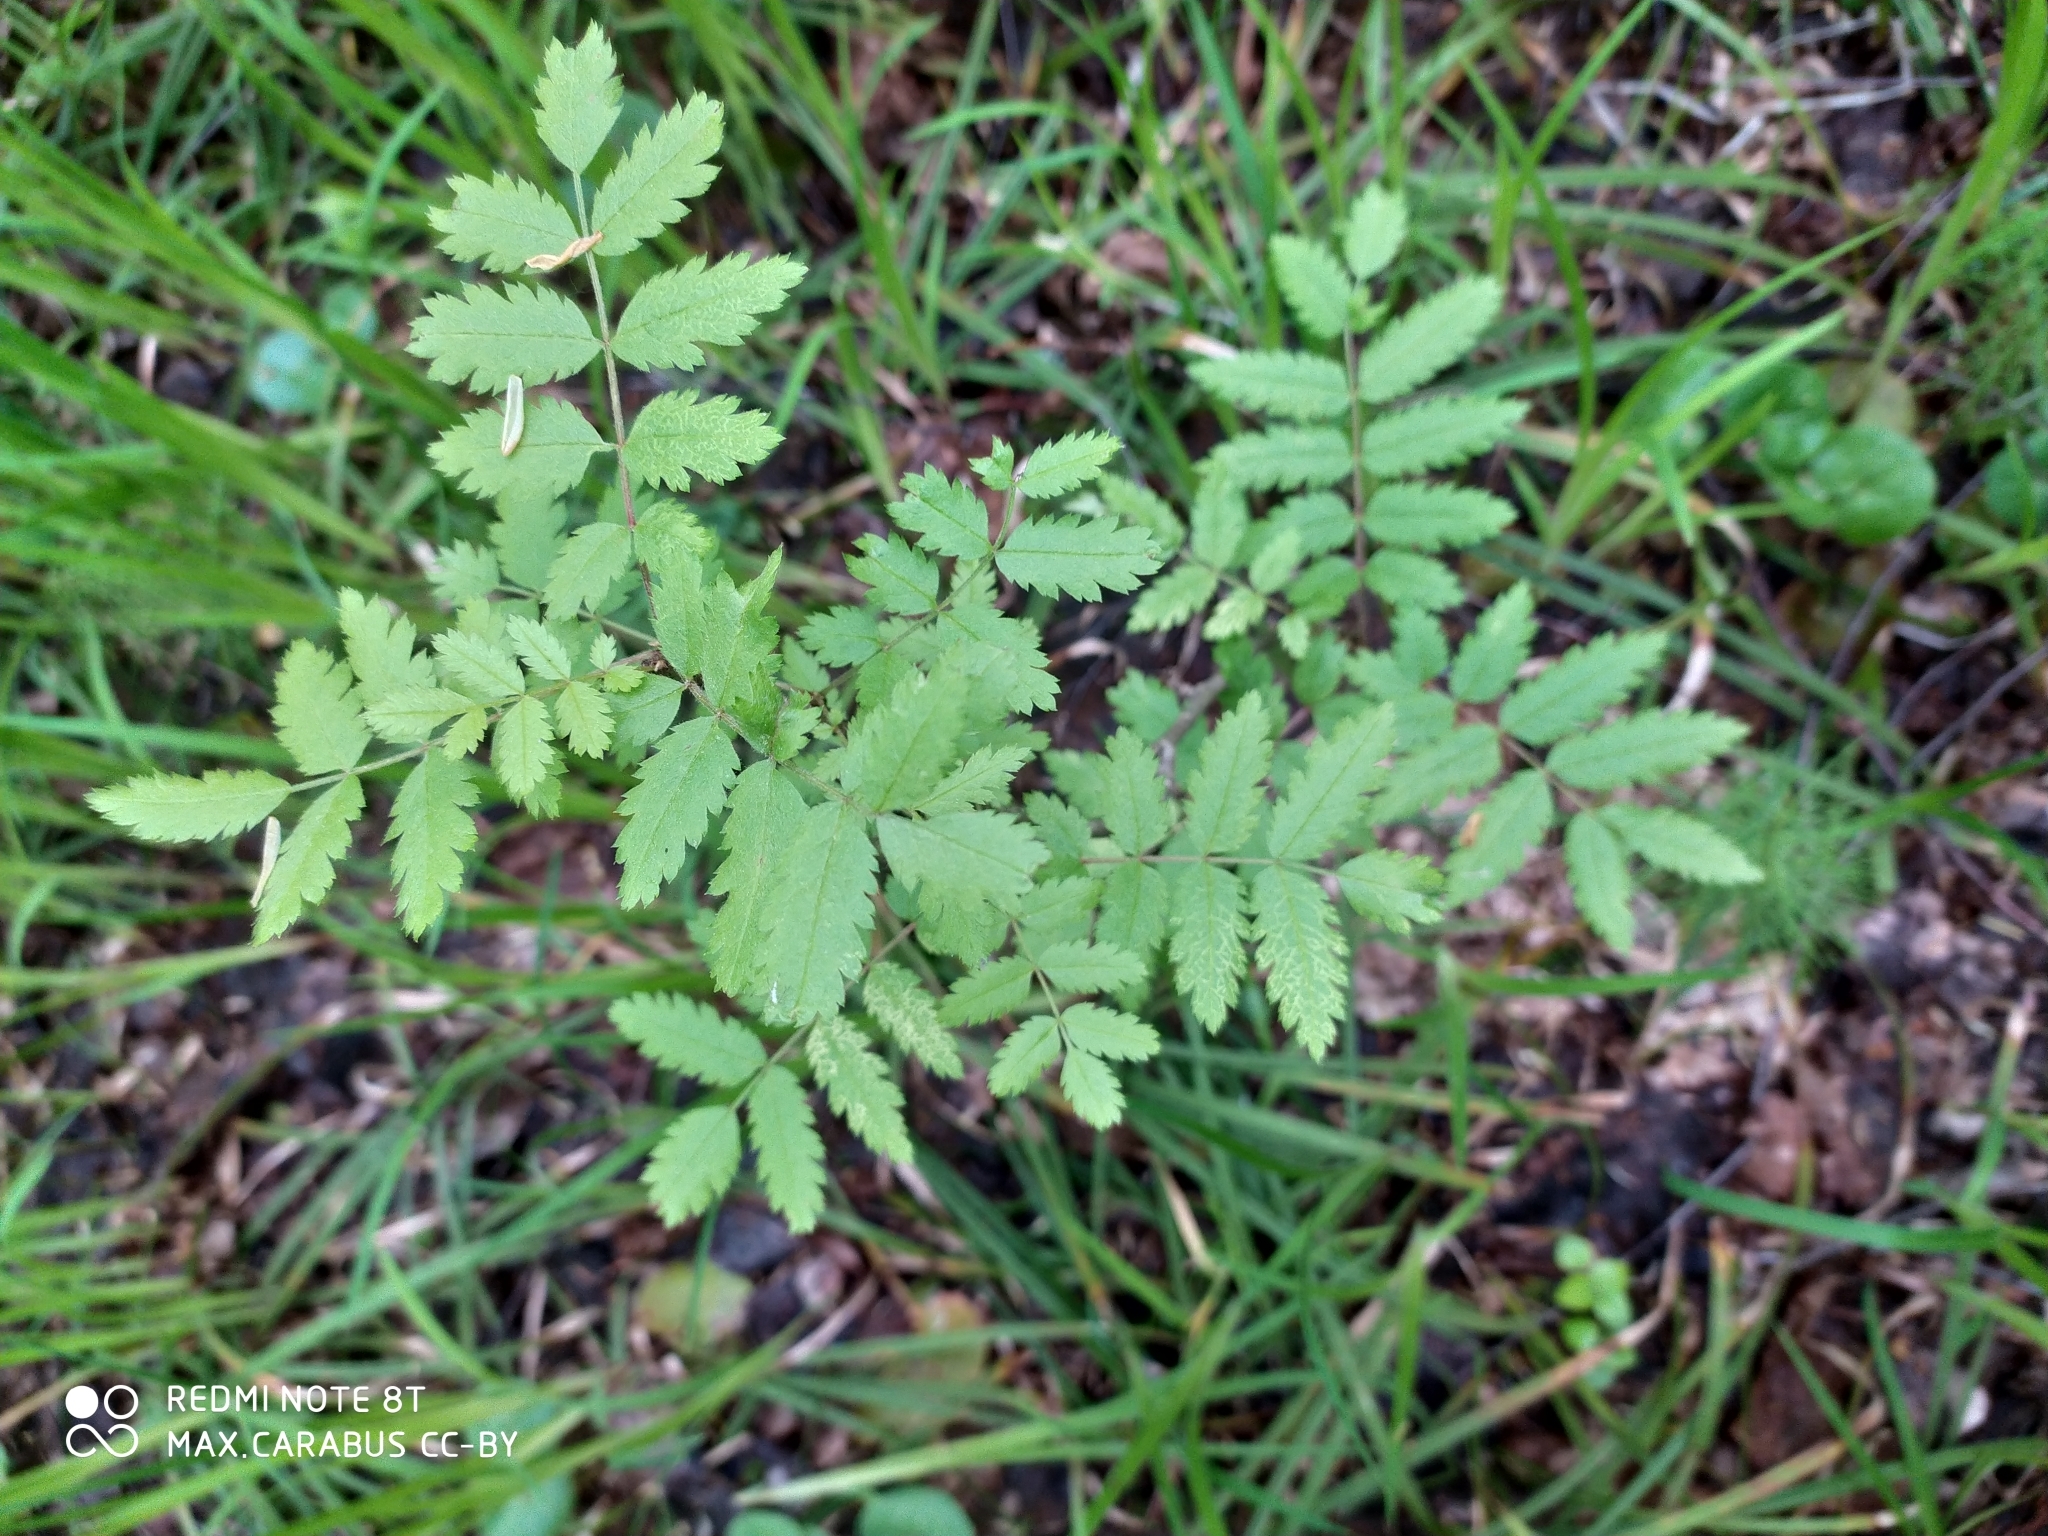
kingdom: Plantae
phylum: Tracheophyta
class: Magnoliopsida
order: Rosales
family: Rosaceae
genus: Sorbus
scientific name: Sorbus aucuparia
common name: Rowan
